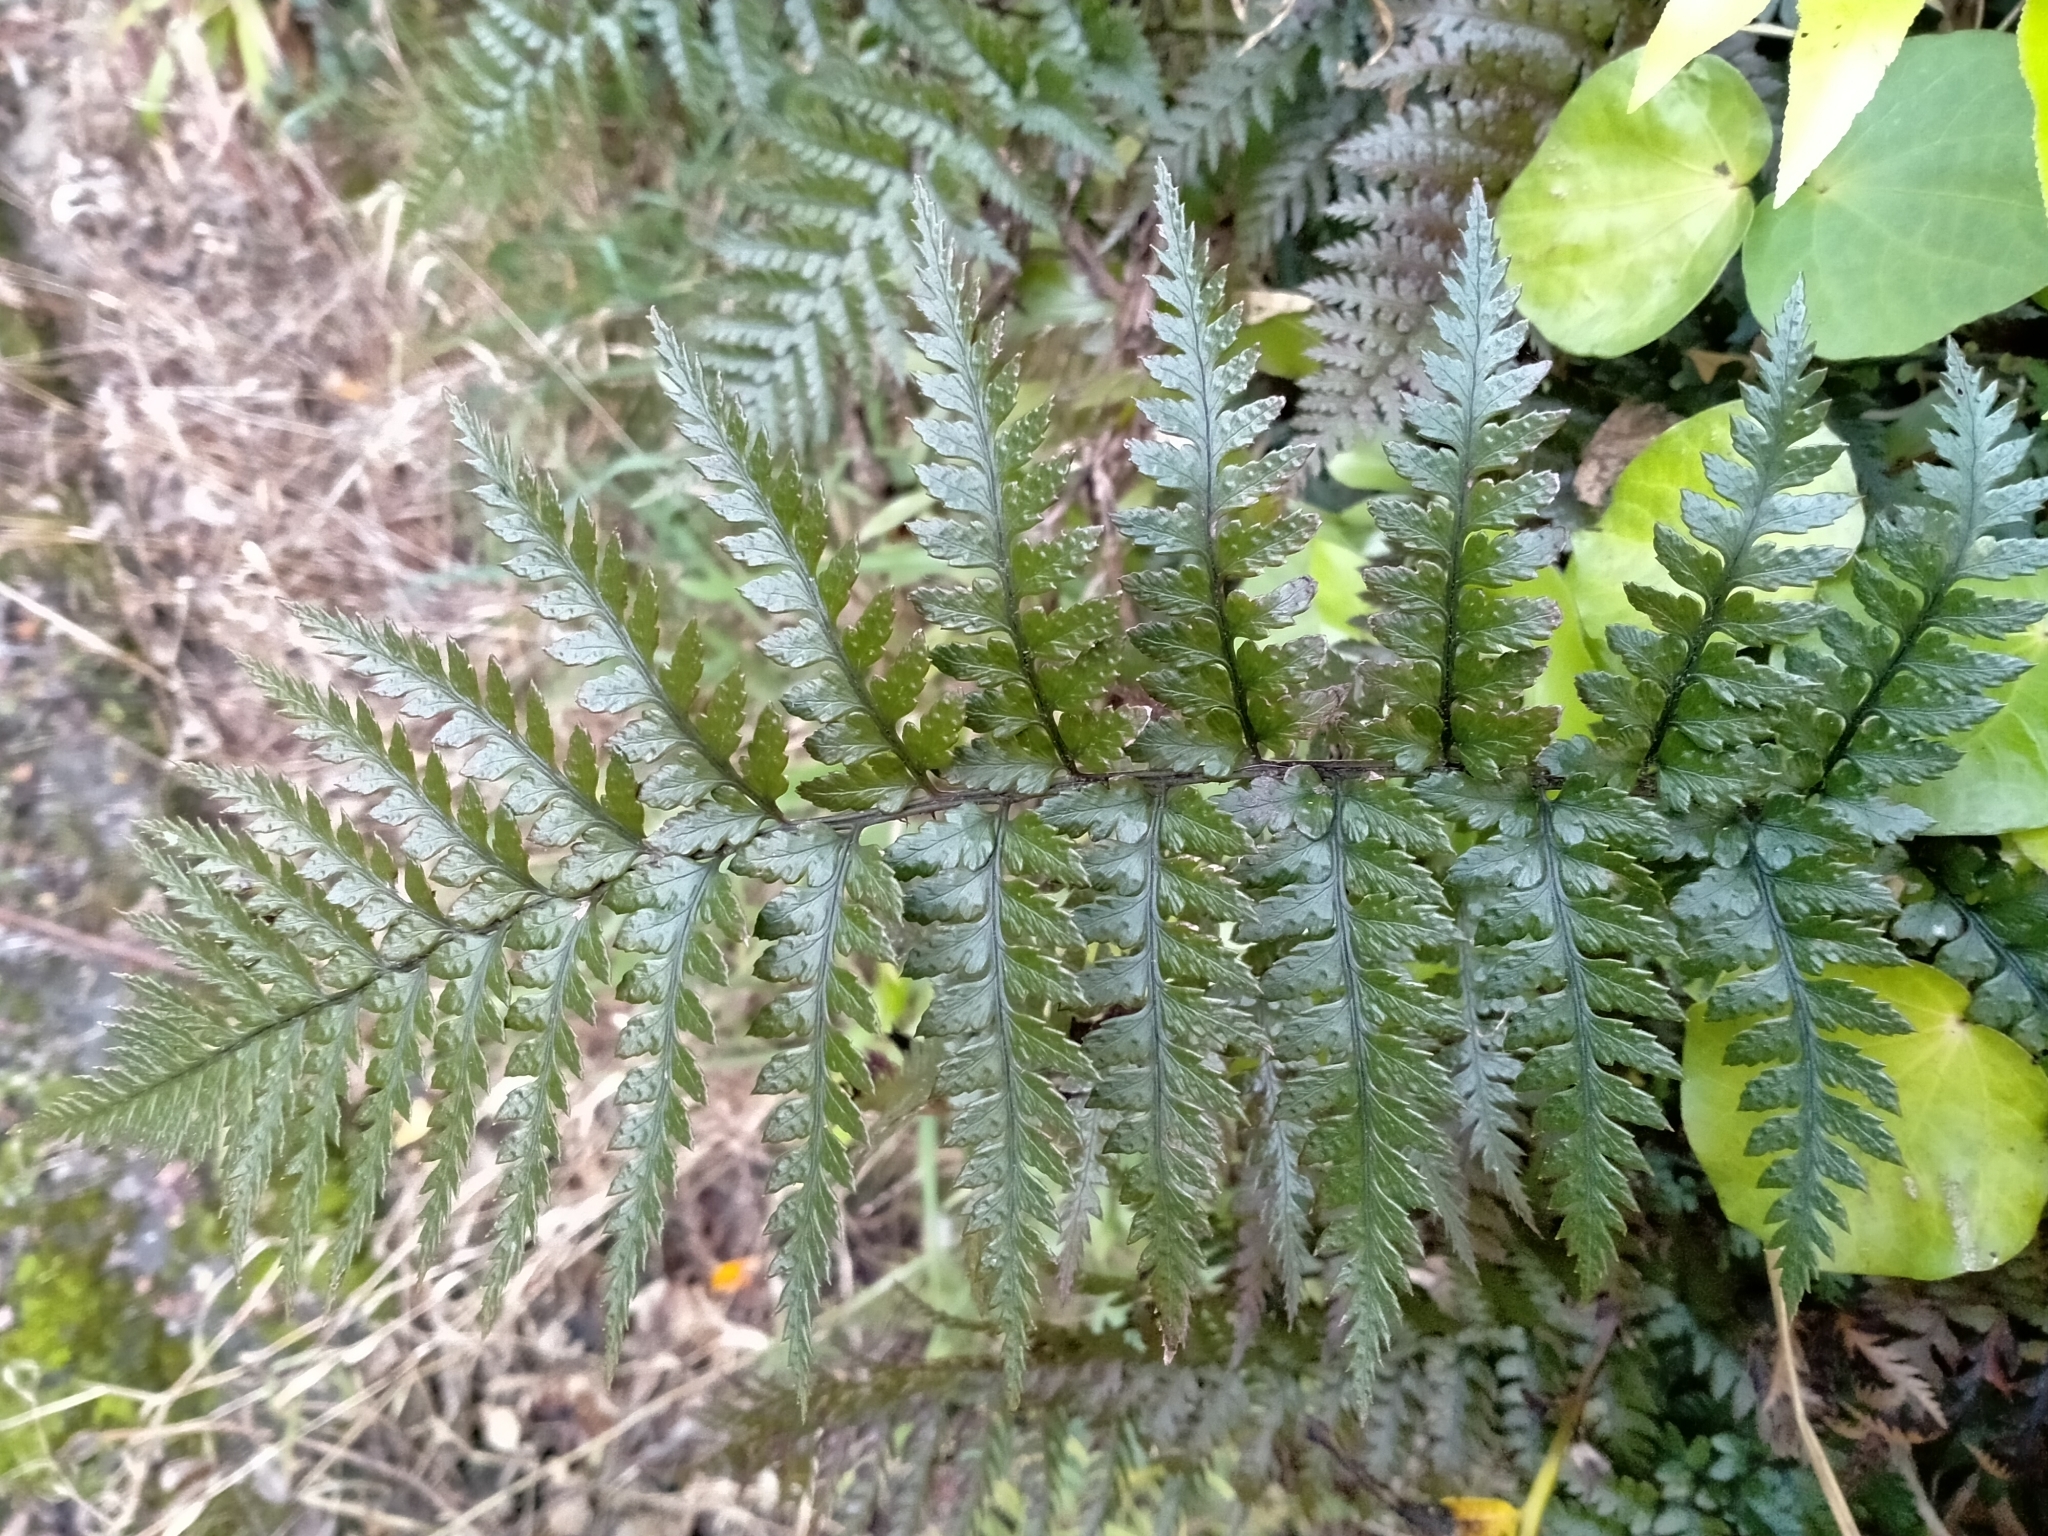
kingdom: Plantae
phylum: Tracheophyta
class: Polypodiopsida
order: Polypodiales
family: Dryopteridaceae
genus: Polystichum
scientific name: Polystichum neozelandicum
